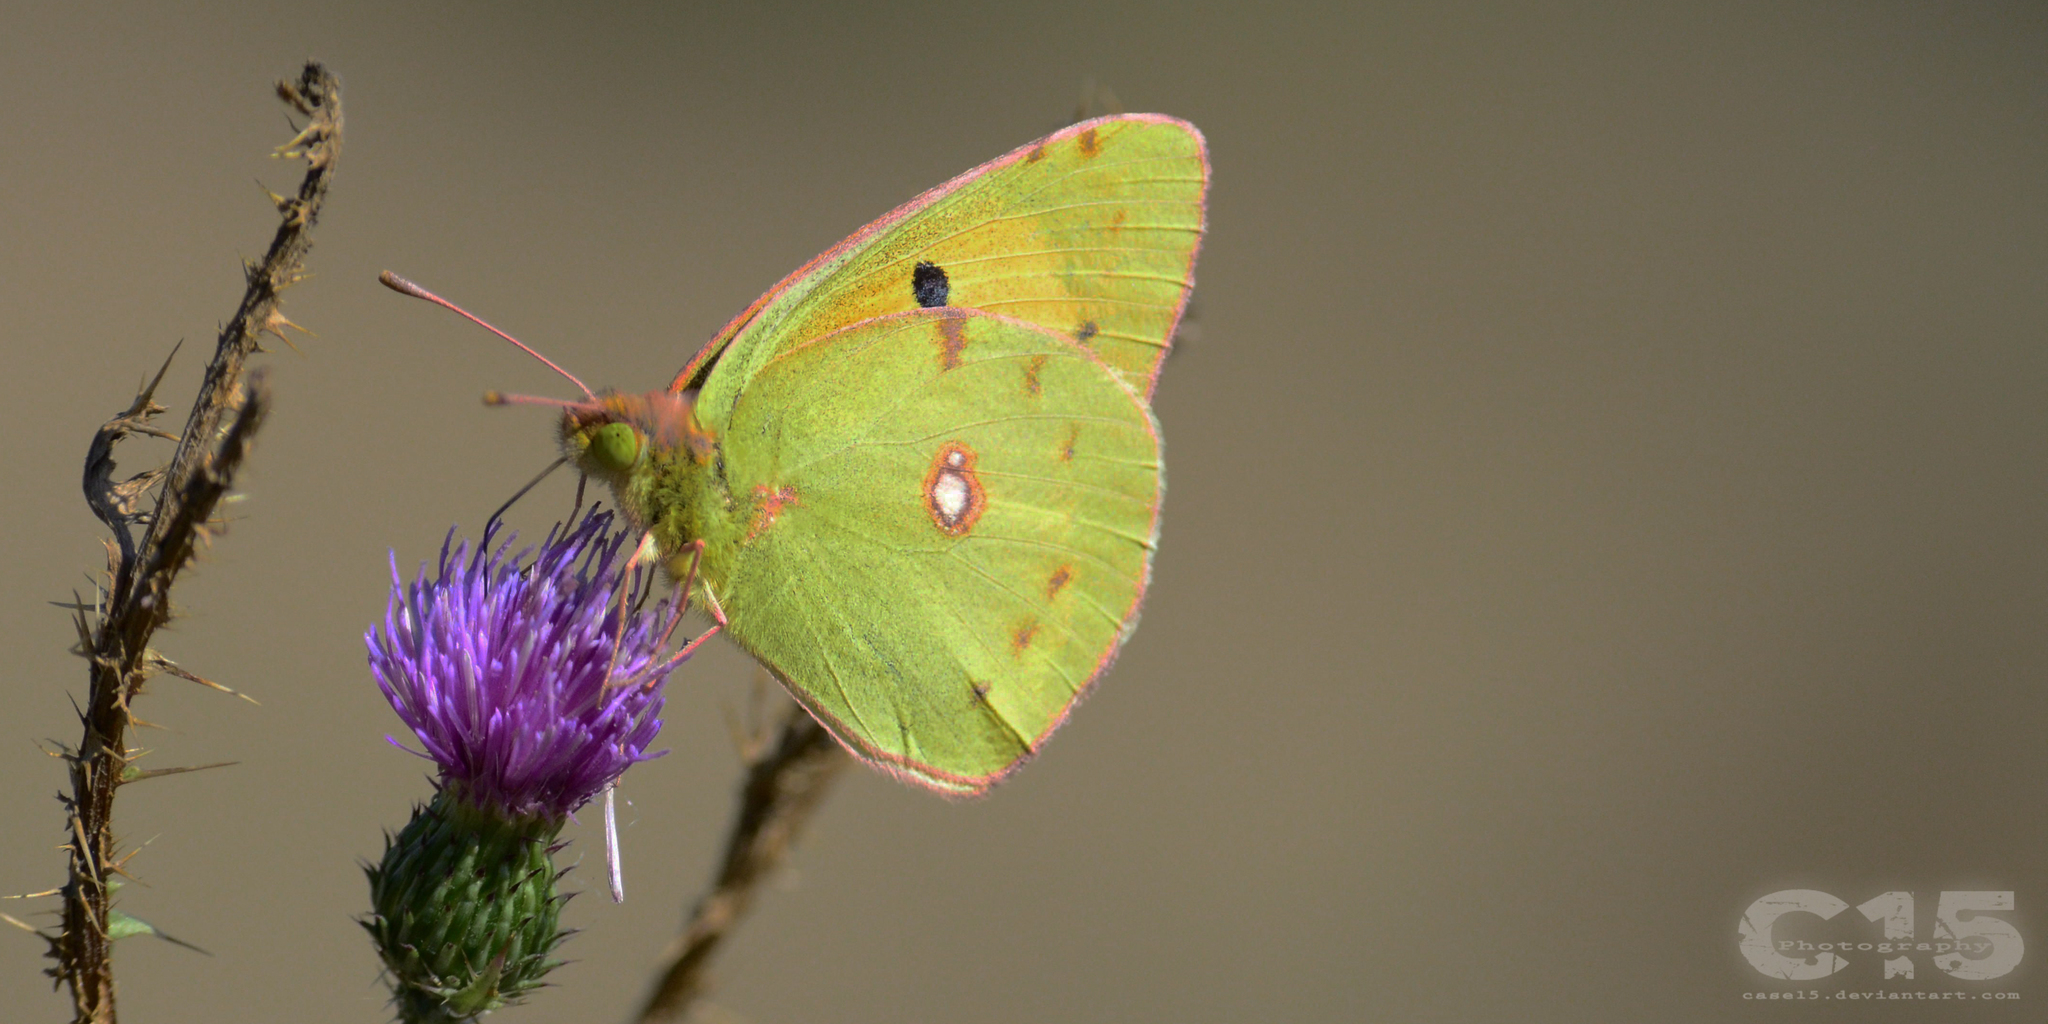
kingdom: Animalia
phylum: Arthropoda
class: Insecta
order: Lepidoptera
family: Pieridae
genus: Colias
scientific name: Colias croceus
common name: Clouded yellow
